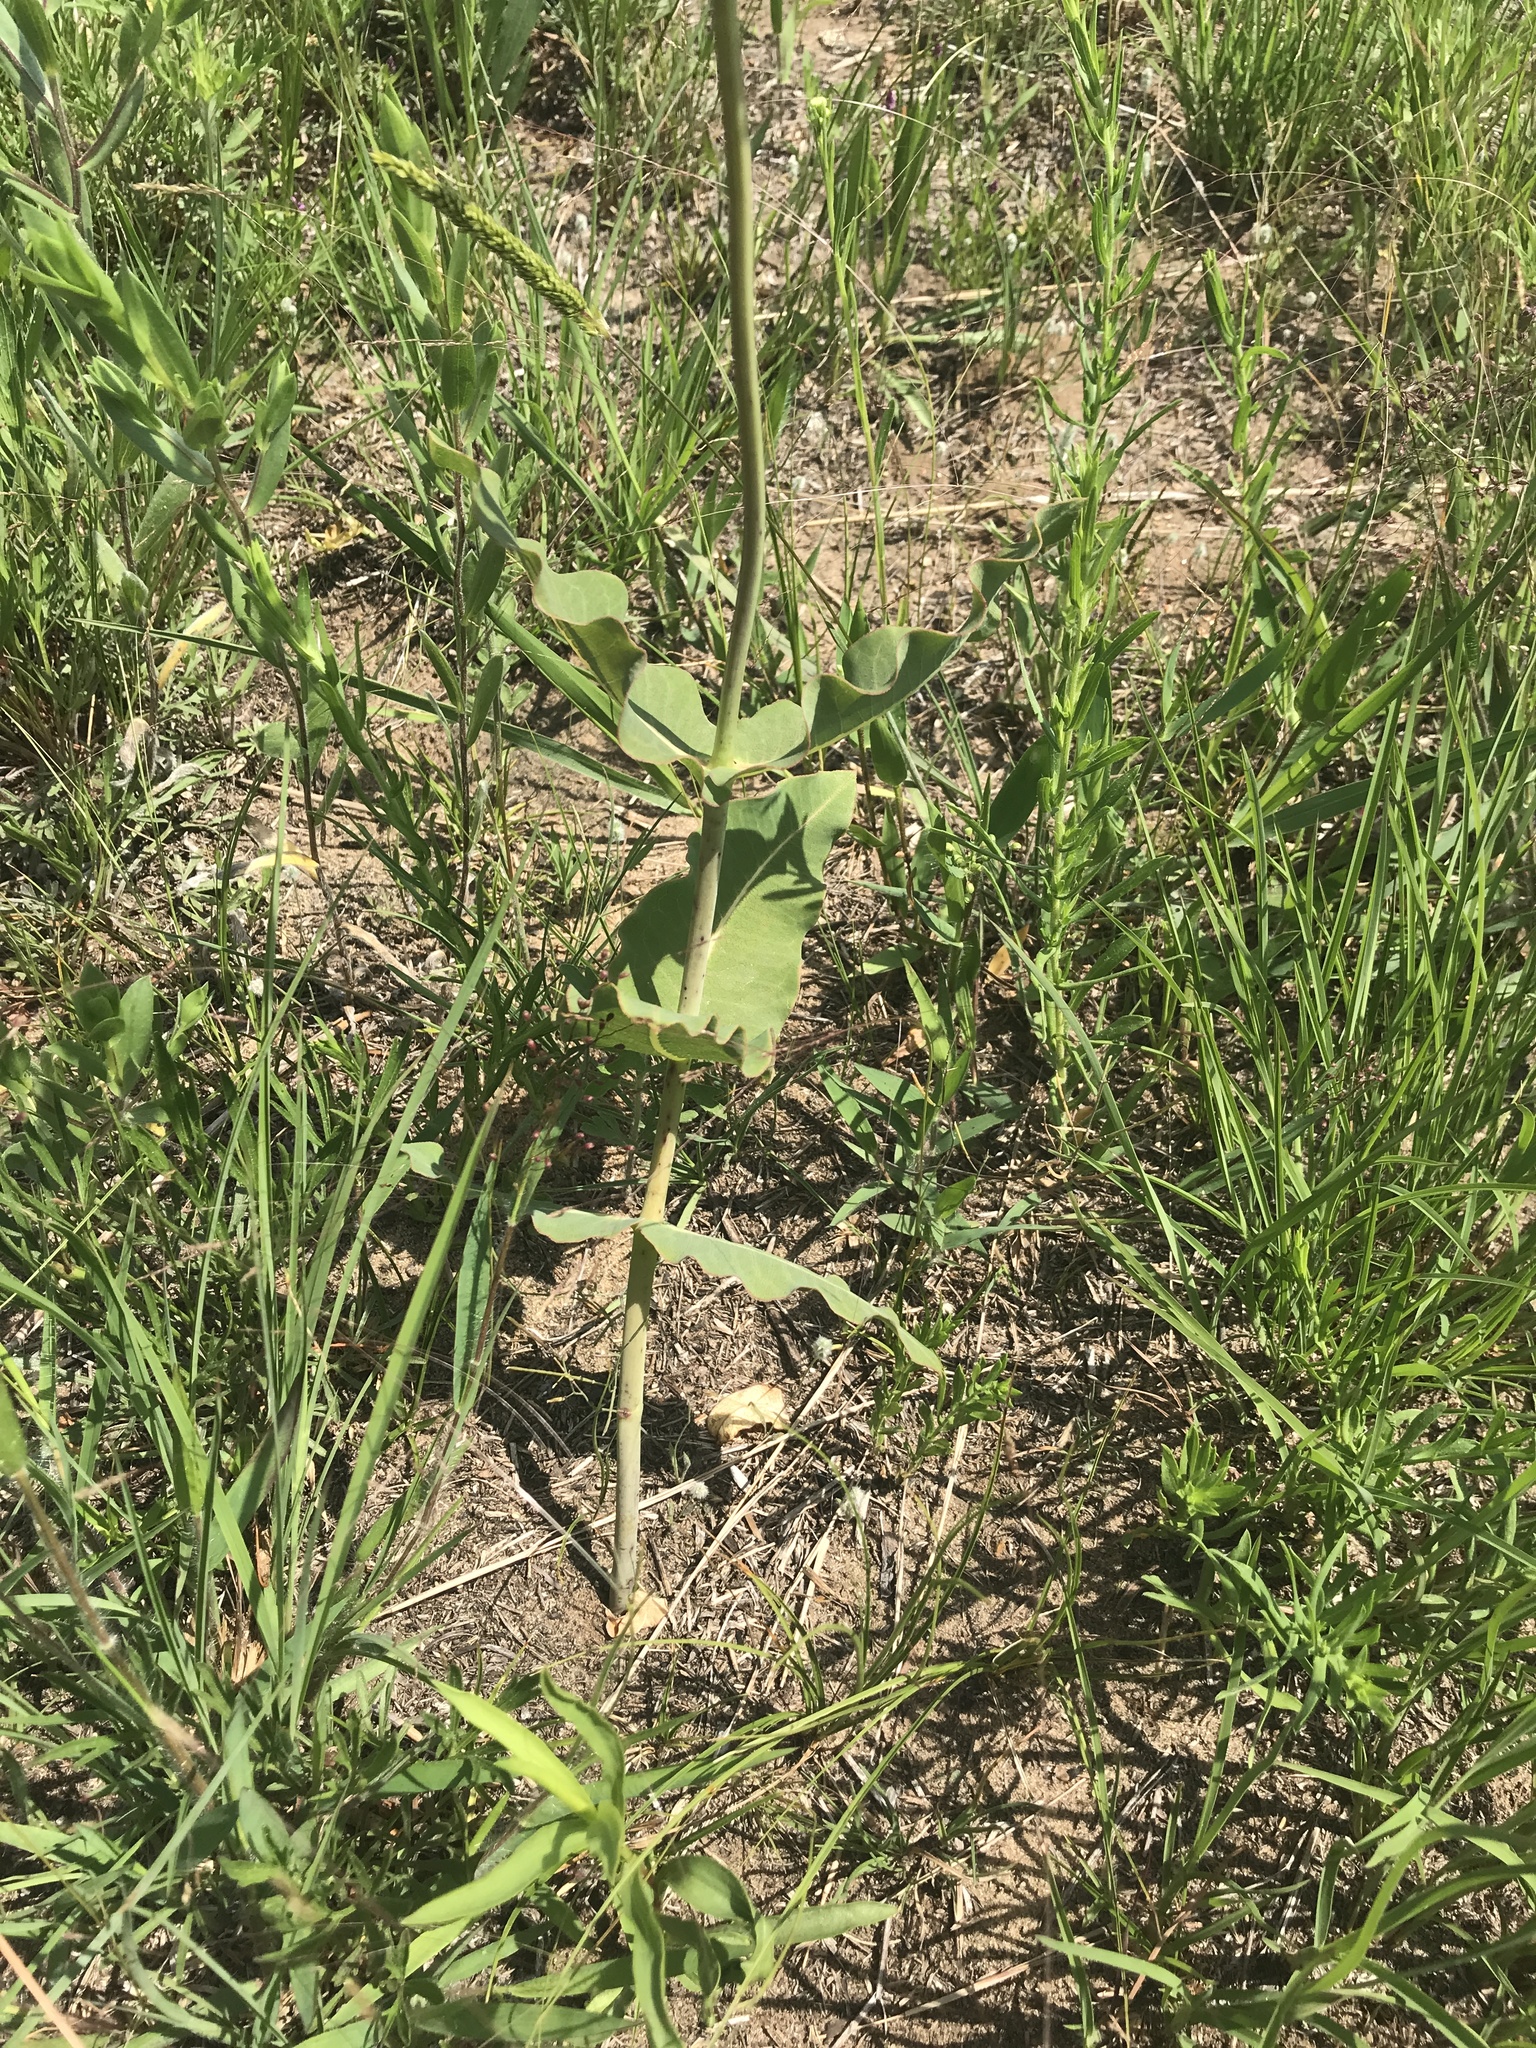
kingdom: Plantae
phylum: Tracheophyta
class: Magnoliopsida
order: Gentianales
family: Apocynaceae
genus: Asclepias
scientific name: Asclepias amplexicaulis
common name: Blunt-leaf milkweed
